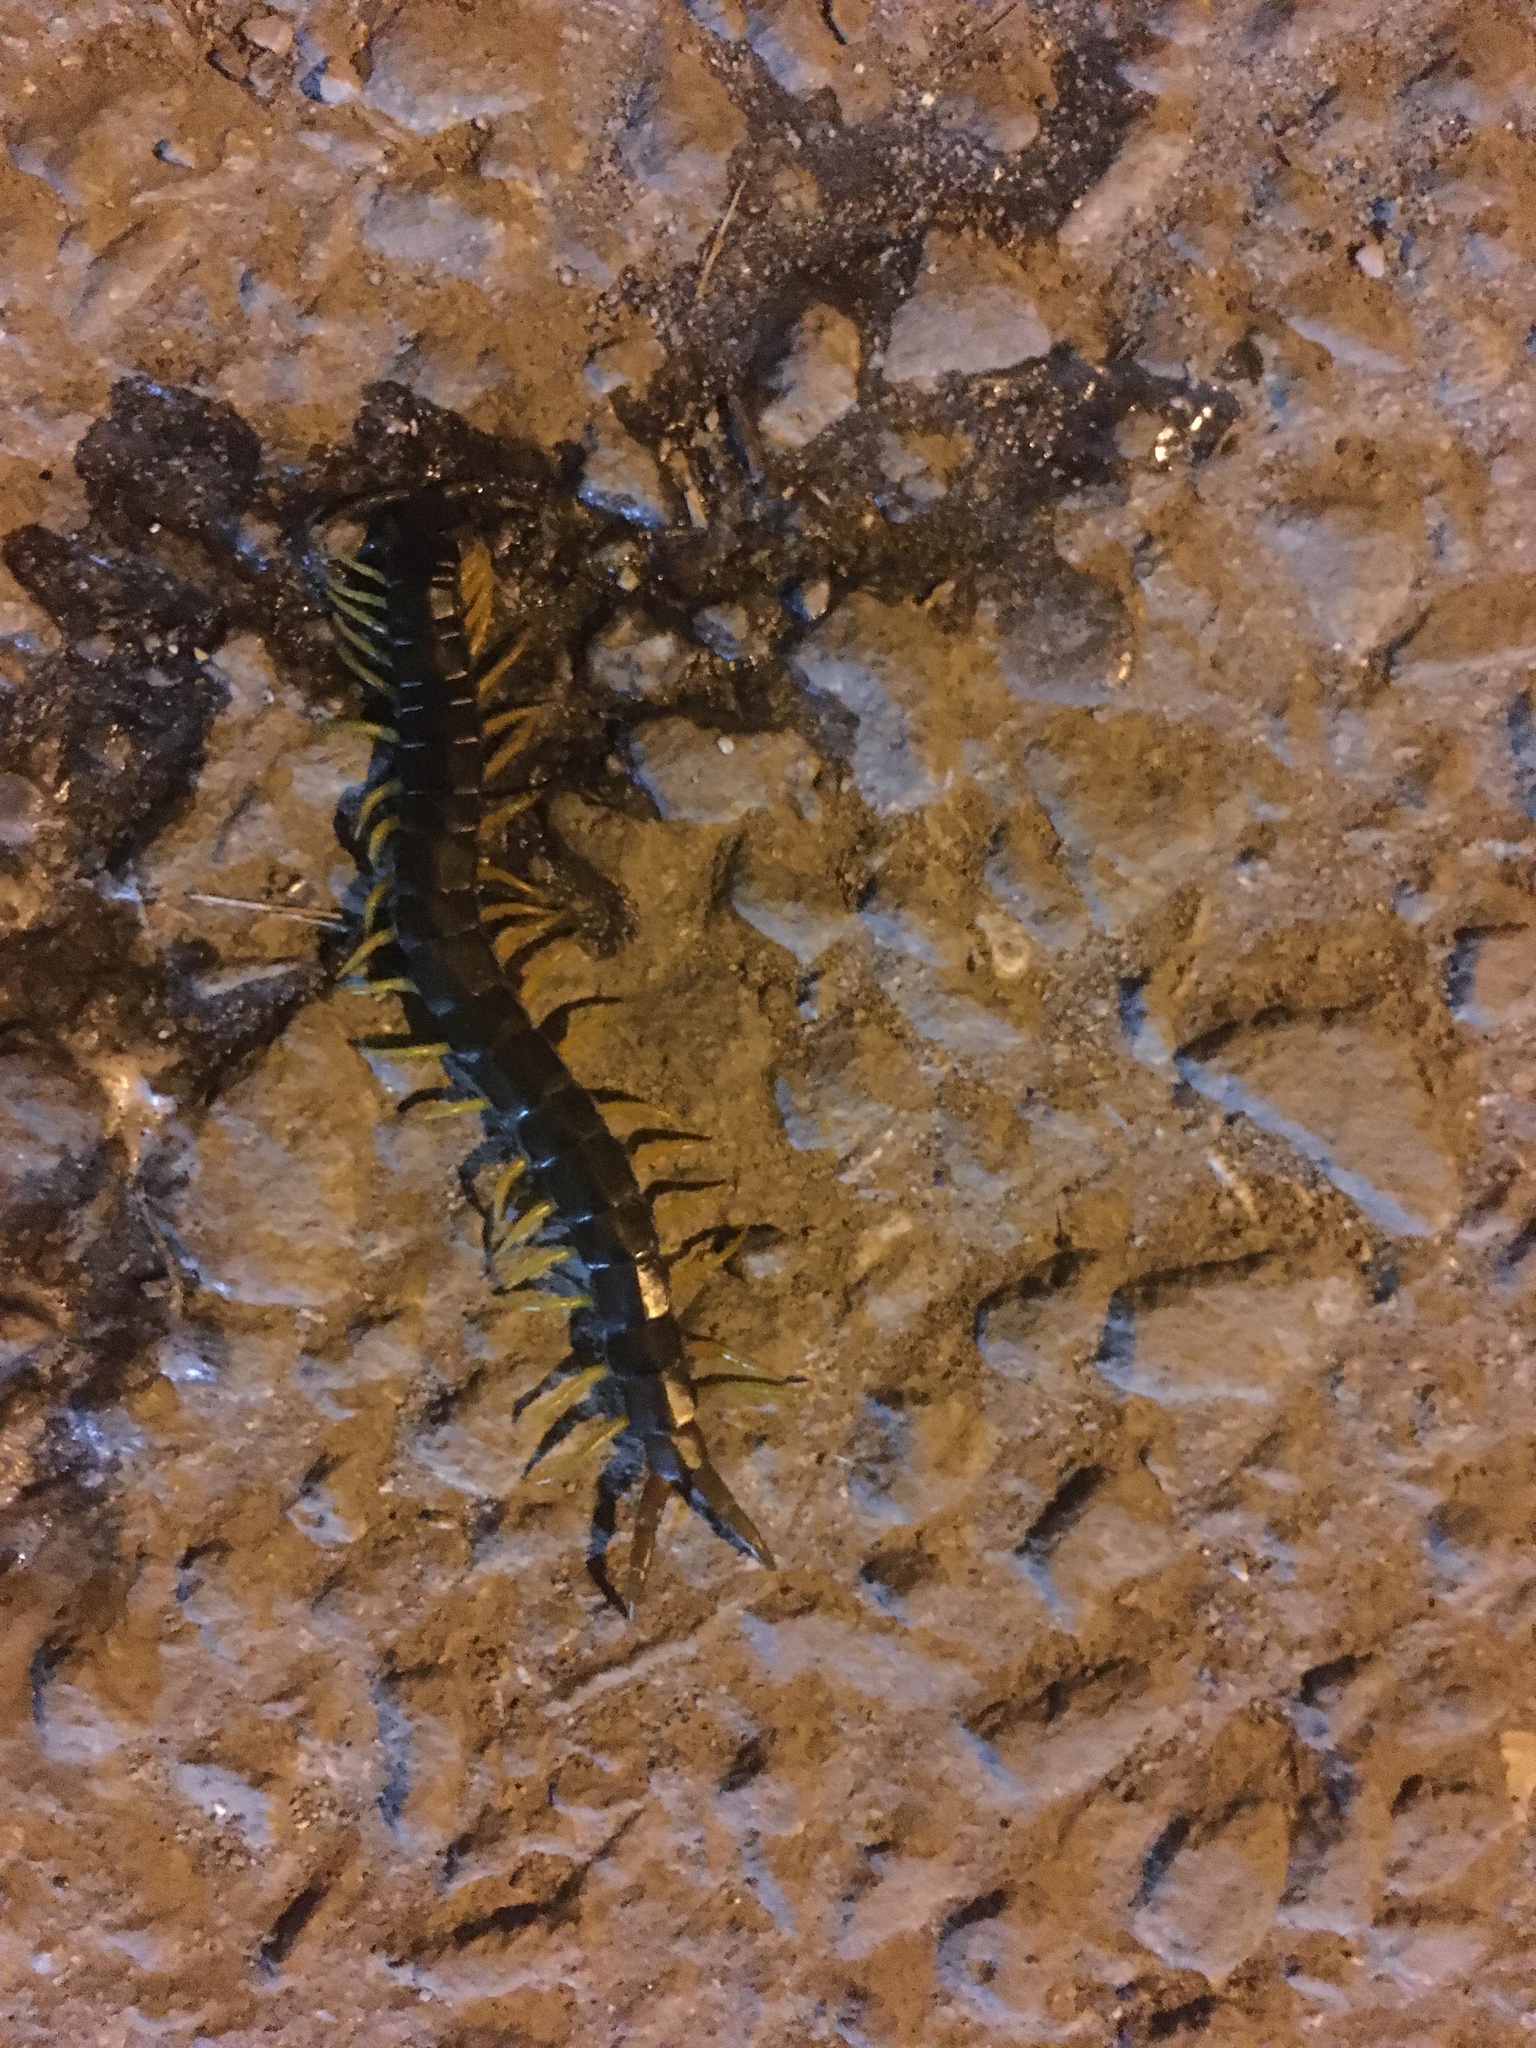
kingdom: Animalia
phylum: Arthropoda
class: Chilopoda
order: Scolopendromorpha
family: Scolopendridae
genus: Scolopendra
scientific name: Scolopendra cingulata
